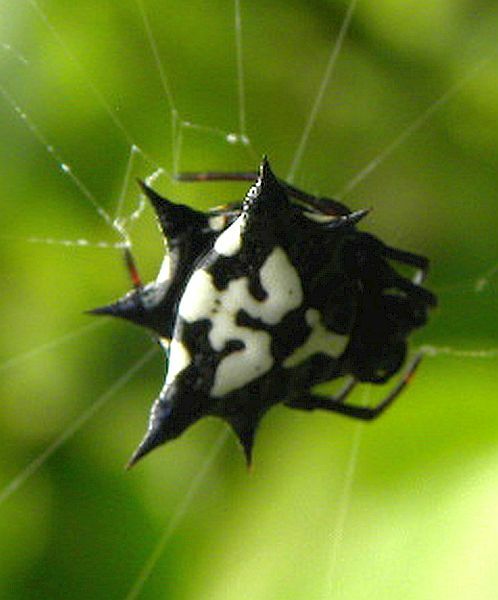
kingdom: Animalia
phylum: Arthropoda
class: Arachnida
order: Araneae
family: Araneidae
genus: Gasteracantha
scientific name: Gasteracantha theisi
